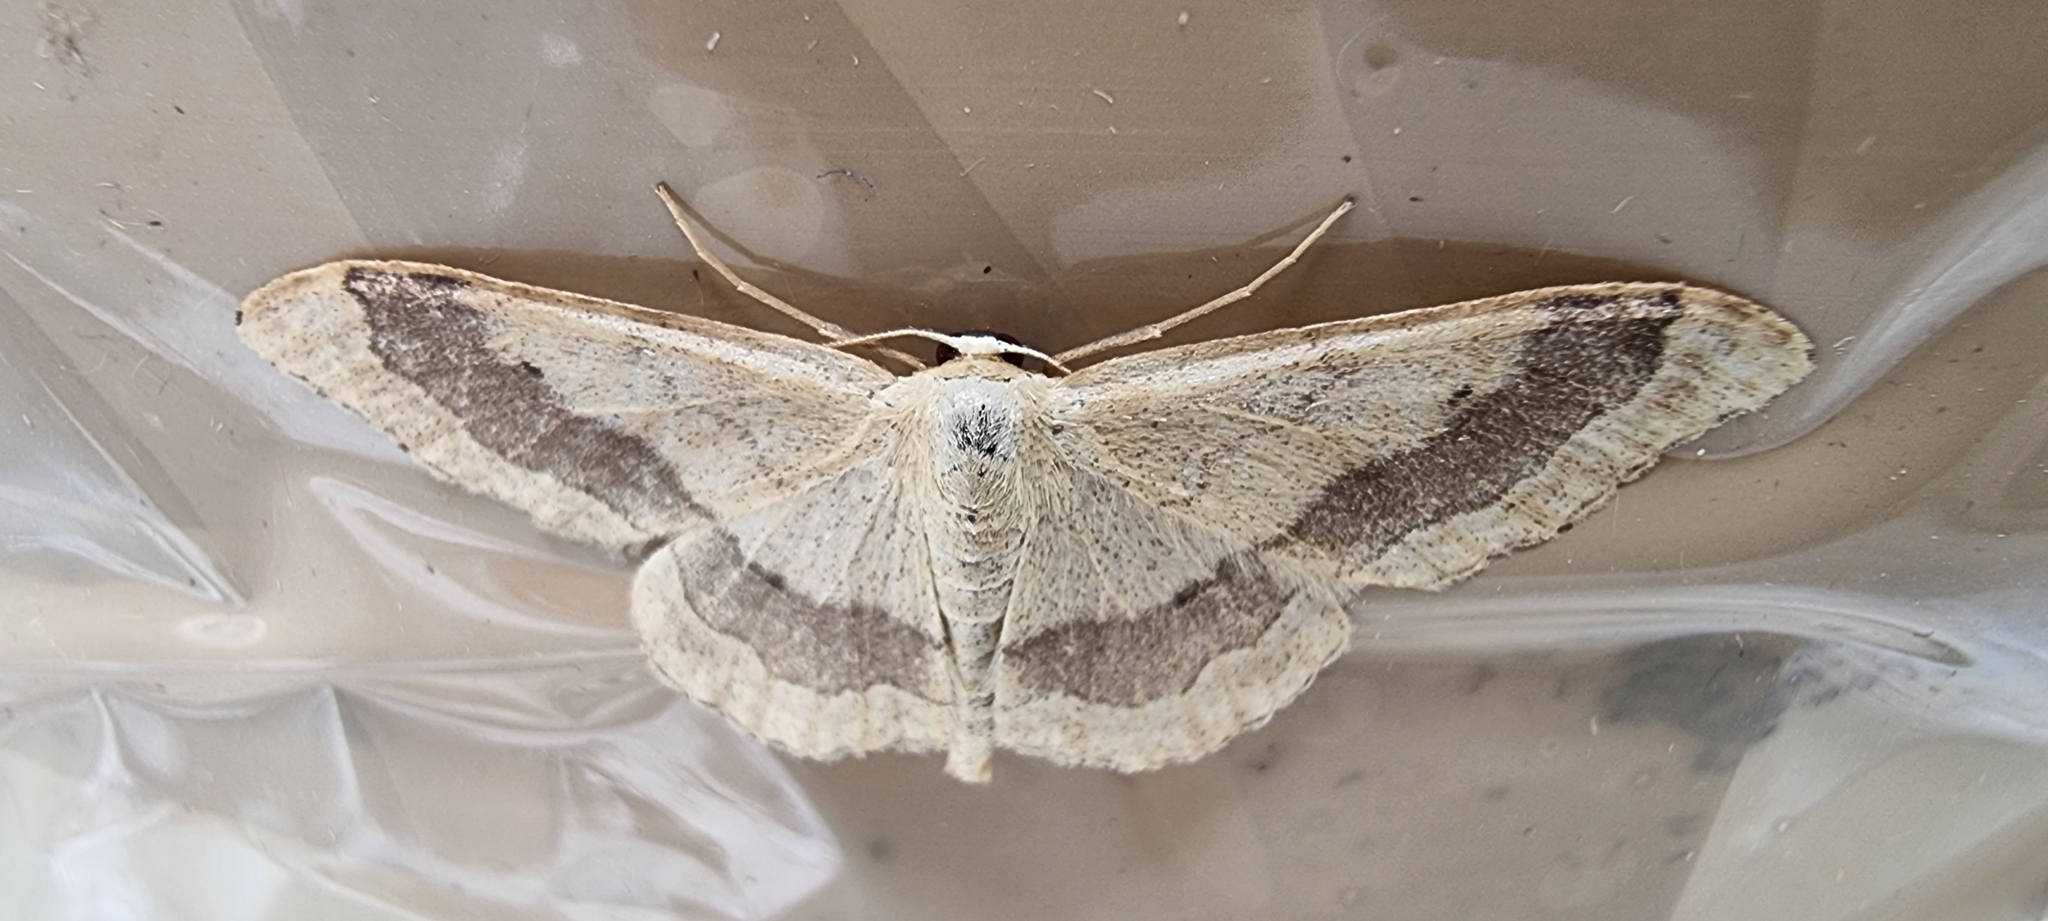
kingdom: Animalia
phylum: Arthropoda
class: Insecta
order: Lepidoptera
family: Geometridae
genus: Idaea
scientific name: Idaea aversata
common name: Riband wave
